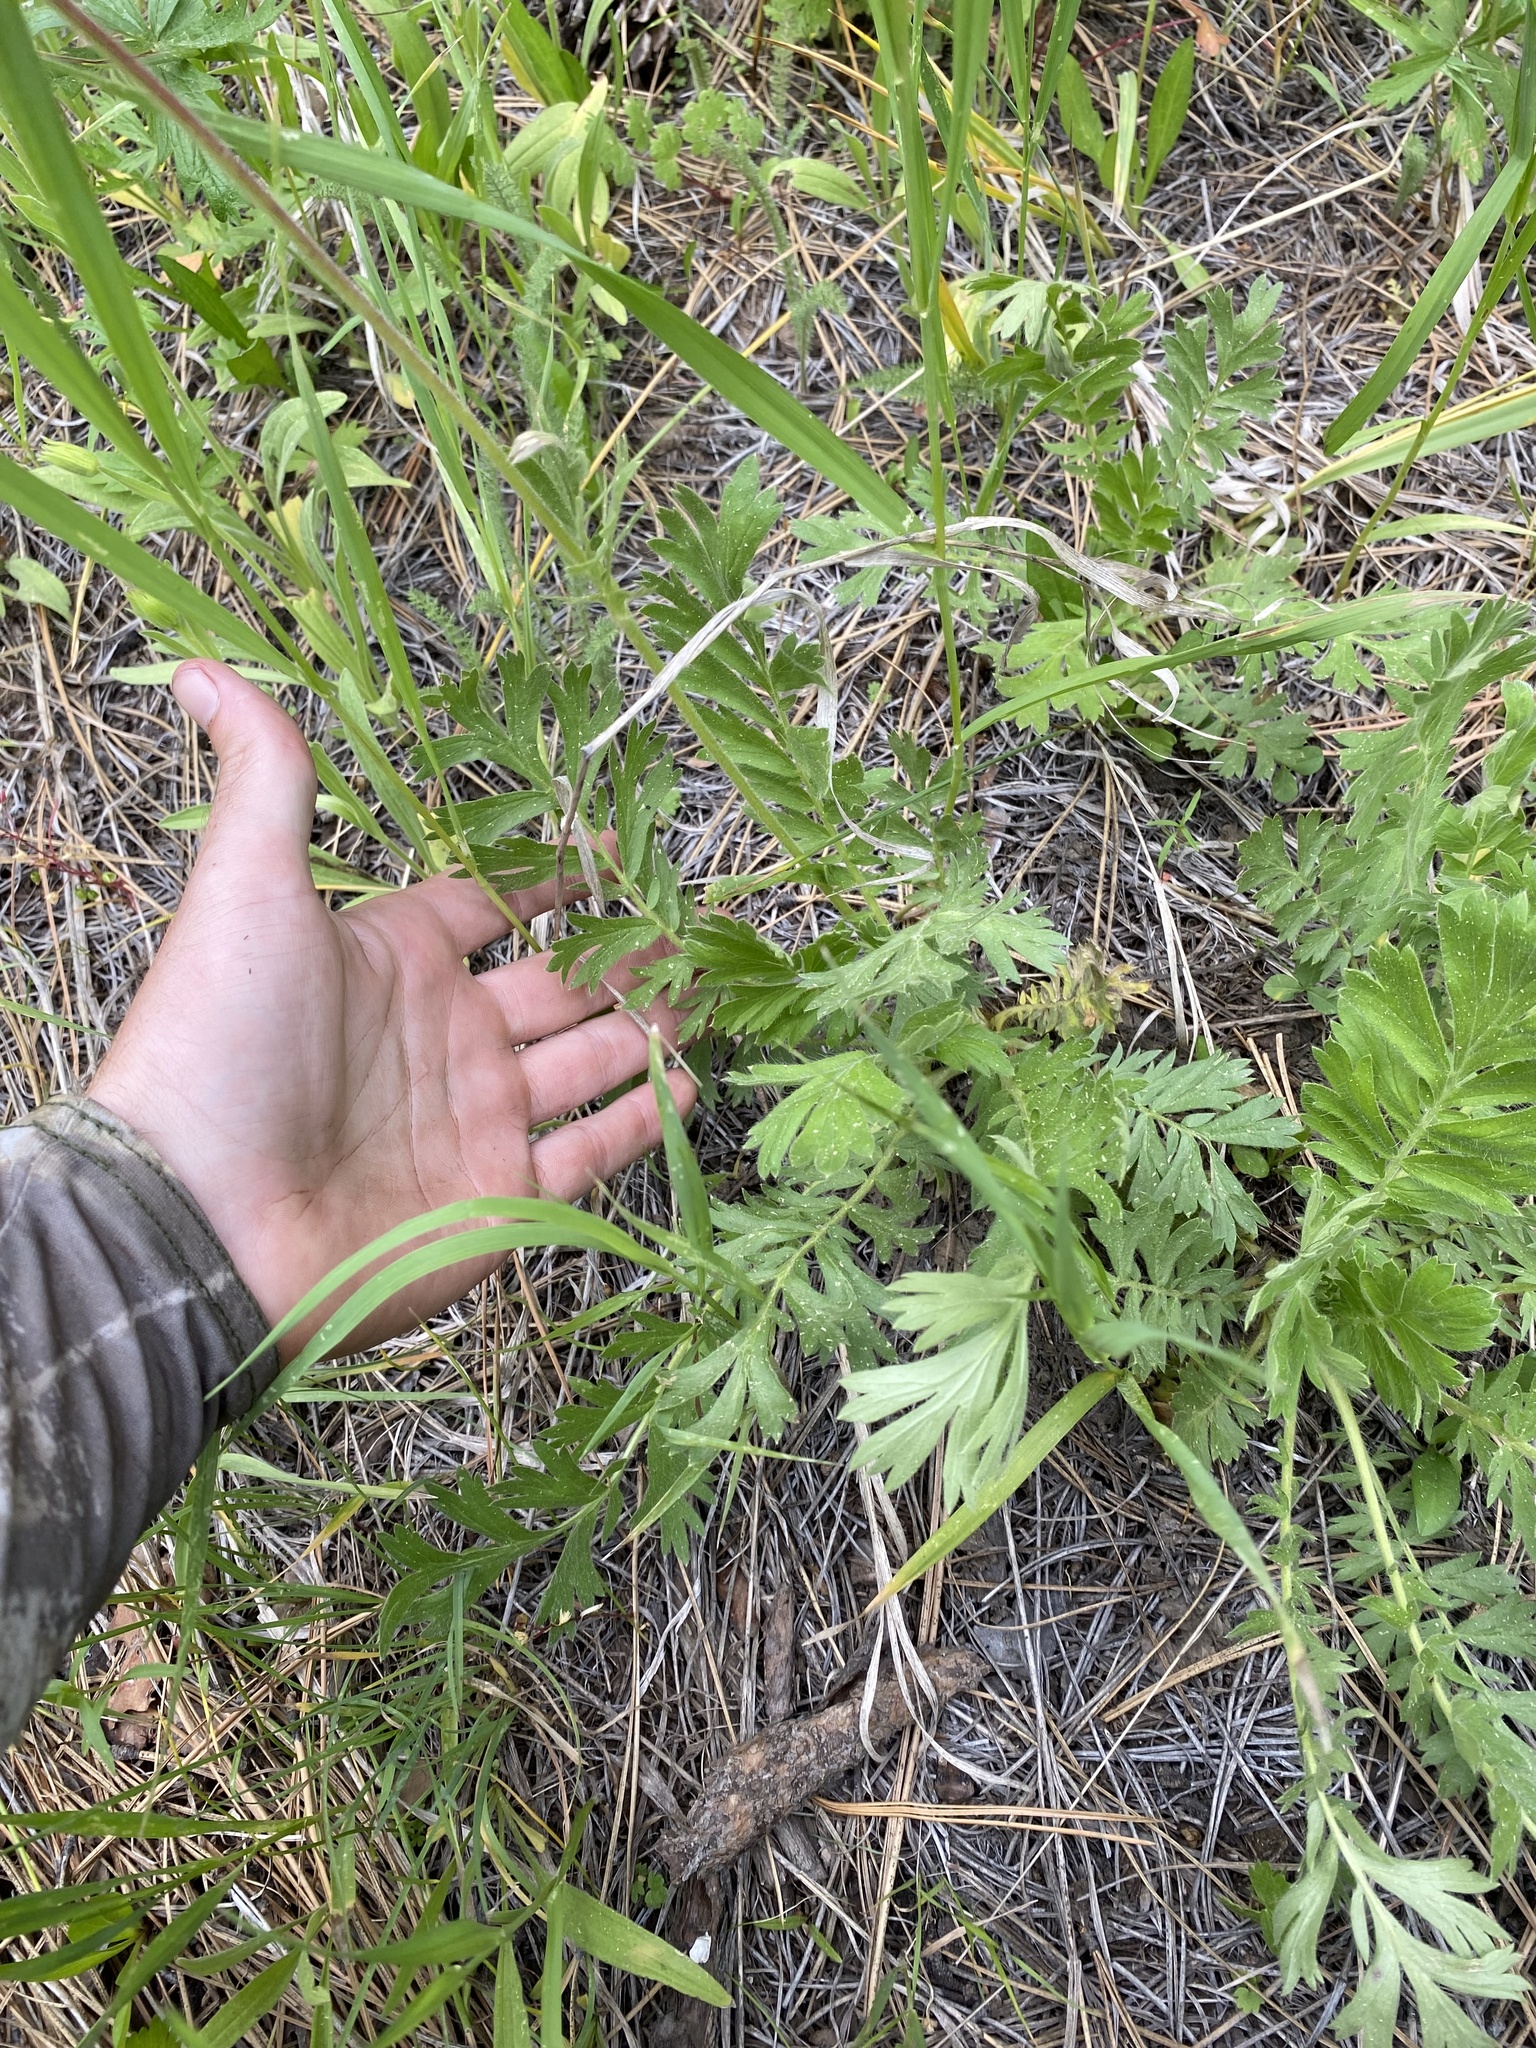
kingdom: Plantae
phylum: Tracheophyta
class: Magnoliopsida
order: Rosales
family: Rosaceae
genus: Geum
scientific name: Geum triflorum
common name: Old man's whiskers
